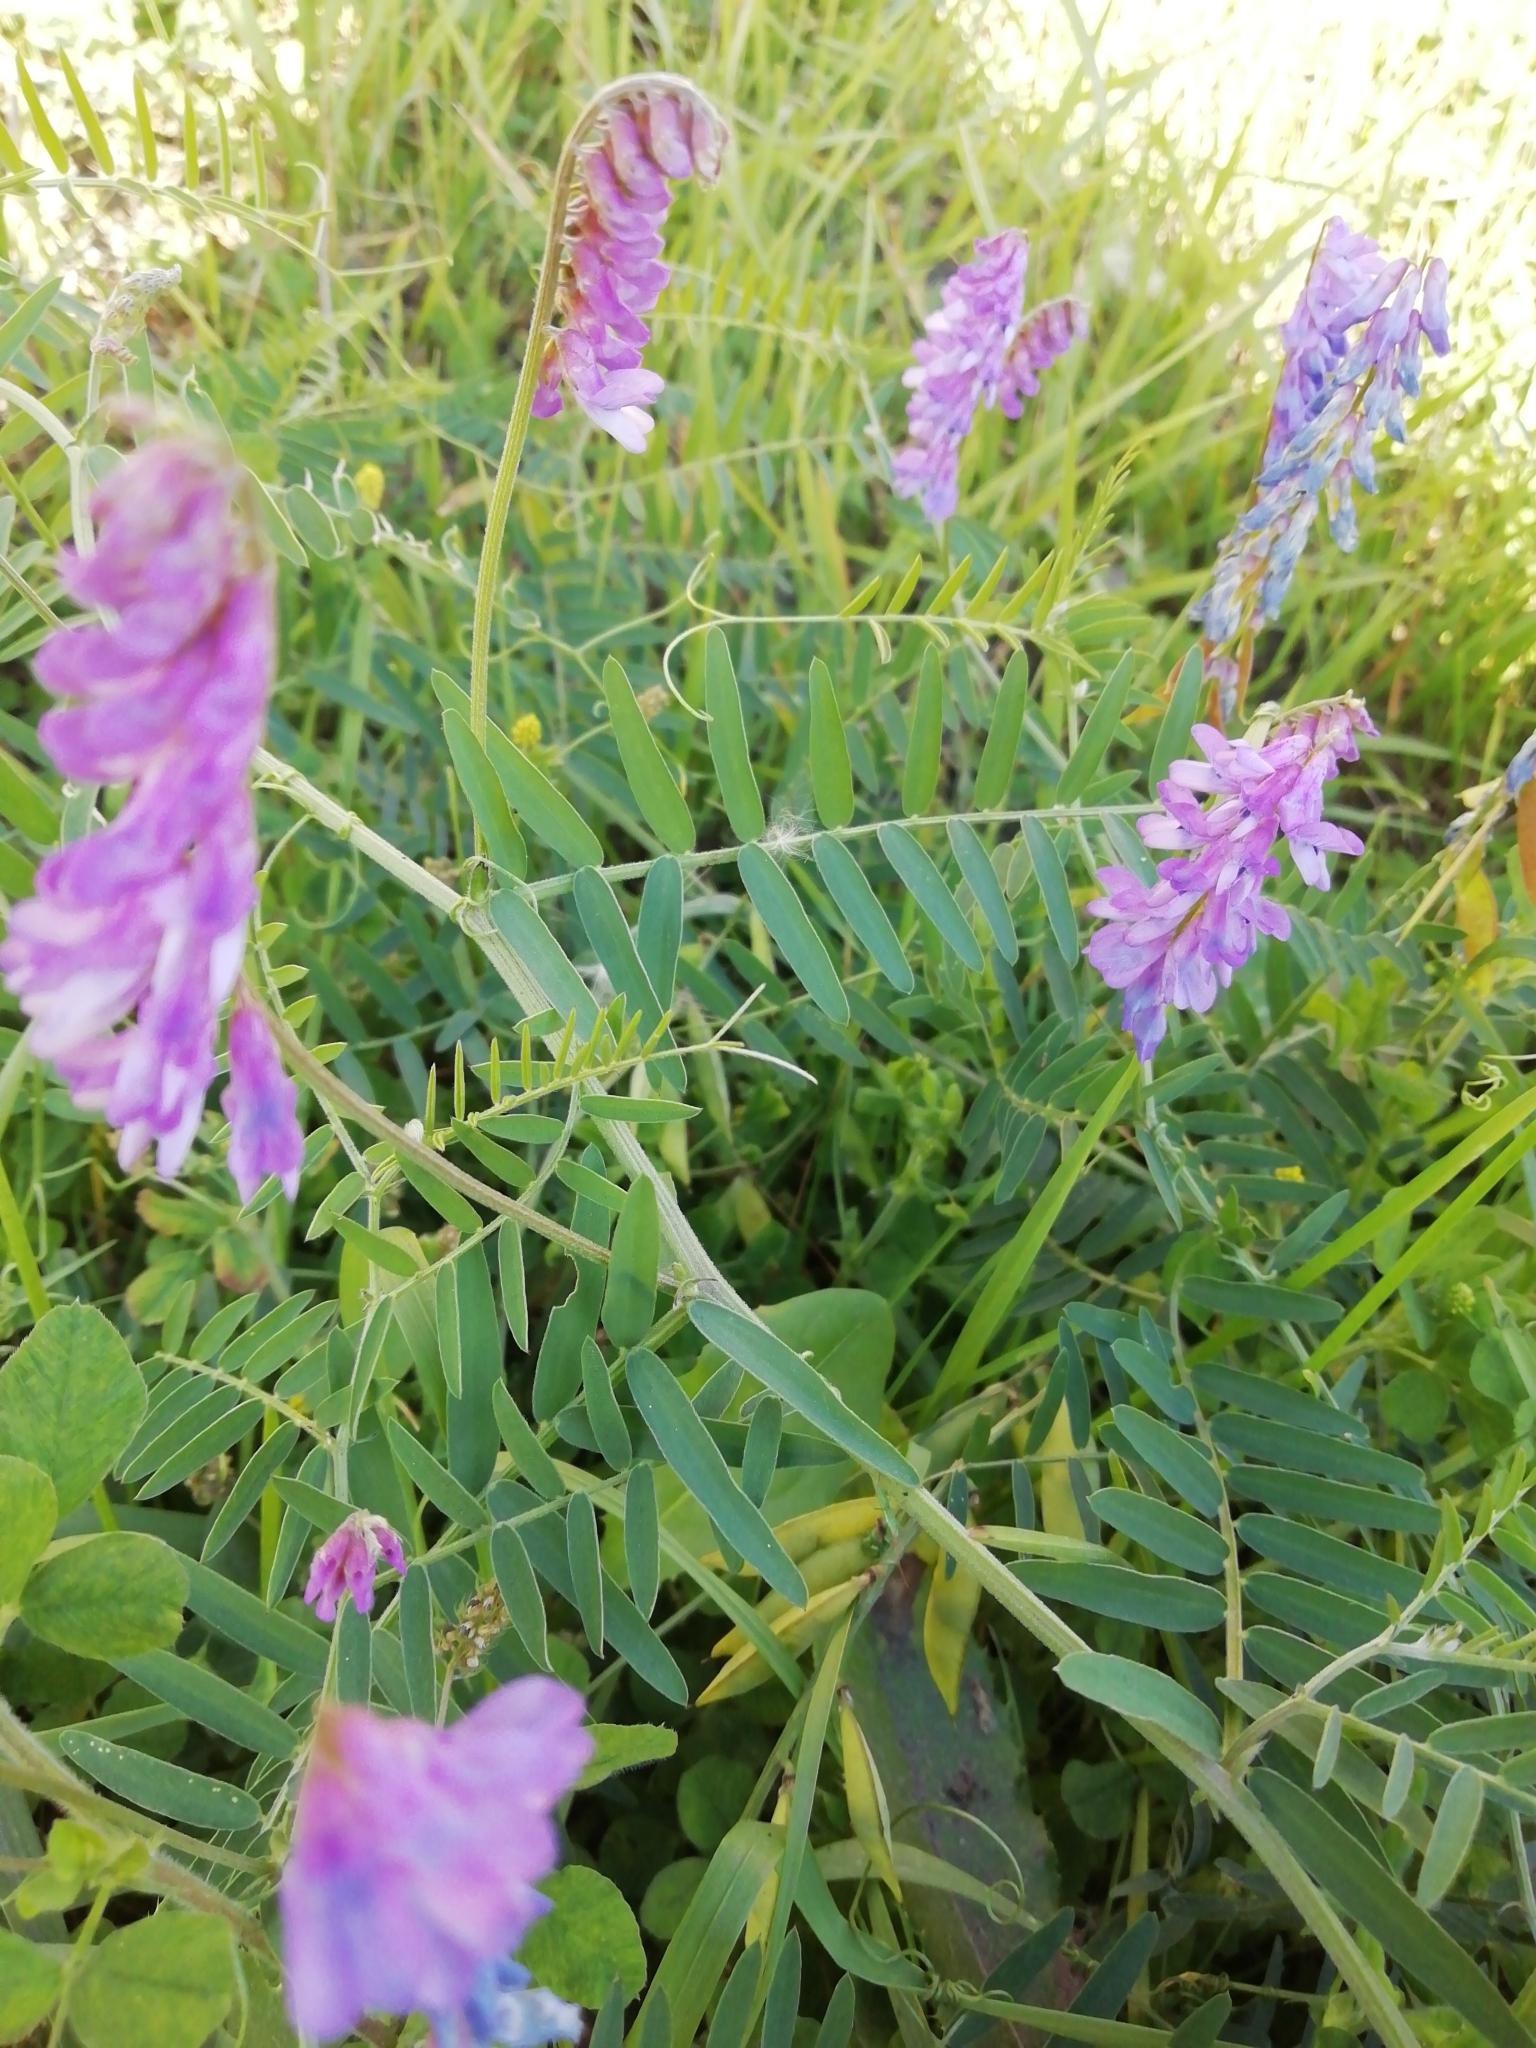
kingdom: Plantae
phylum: Tracheophyta
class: Magnoliopsida
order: Fabales
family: Fabaceae
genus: Vicia
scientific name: Vicia cracca
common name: Bird vetch
